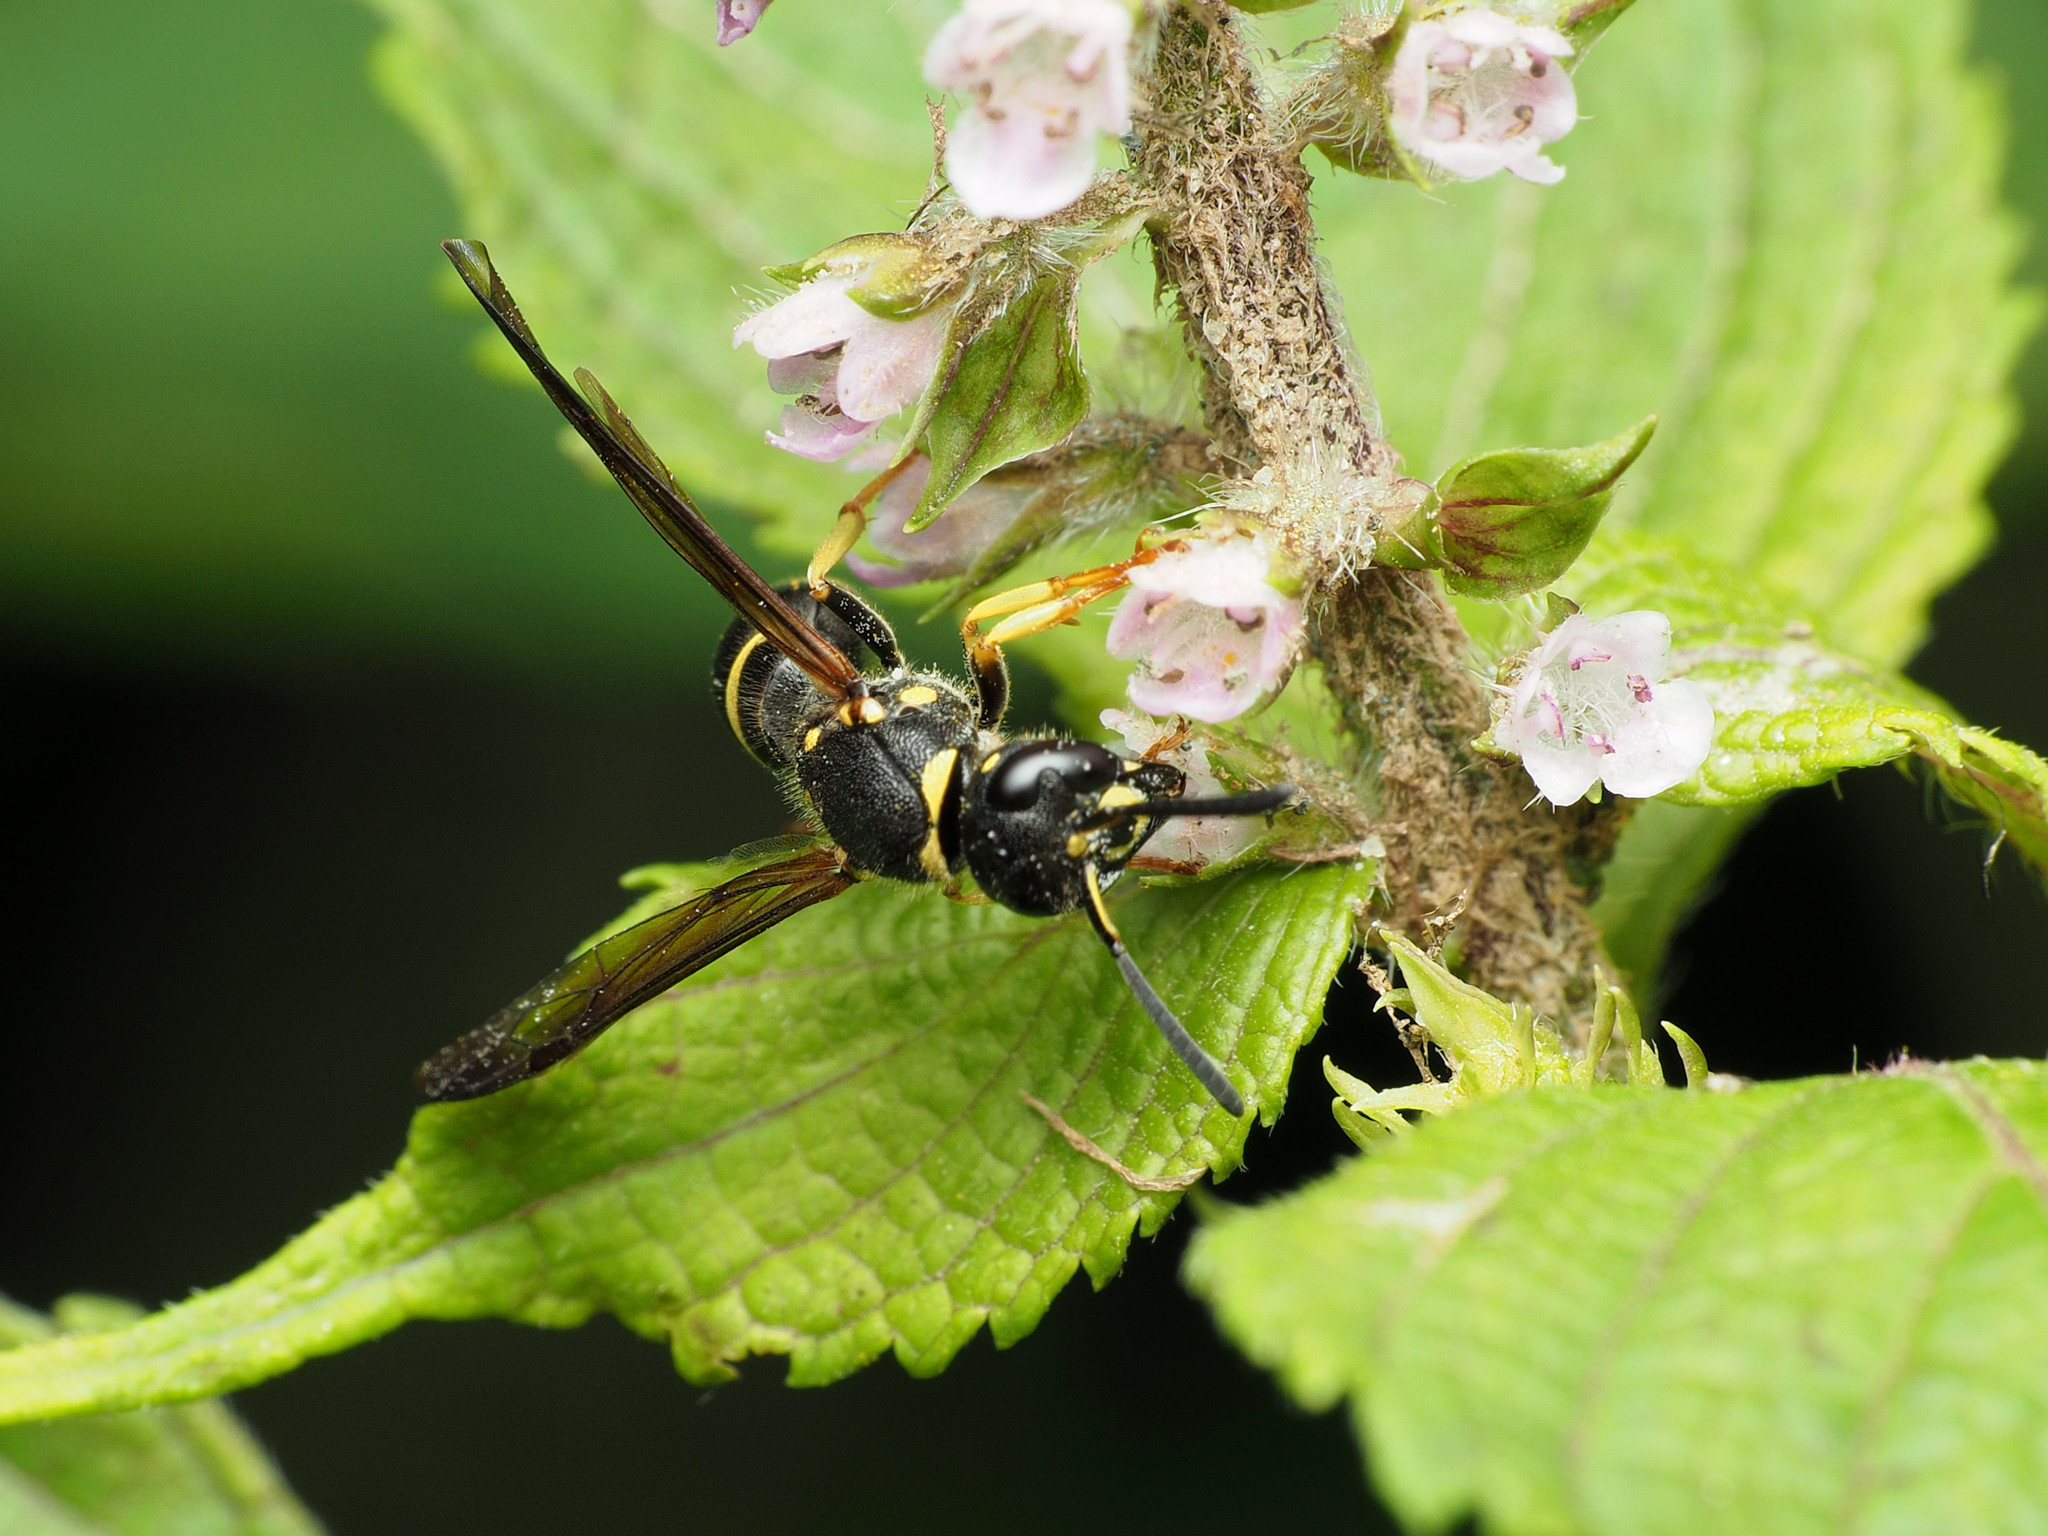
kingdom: Animalia
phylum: Arthropoda
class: Insecta
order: Hymenoptera
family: Vespidae
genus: Ancistrocerus
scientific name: Ancistrocerus adiabatus
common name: Bramble mason wasp
